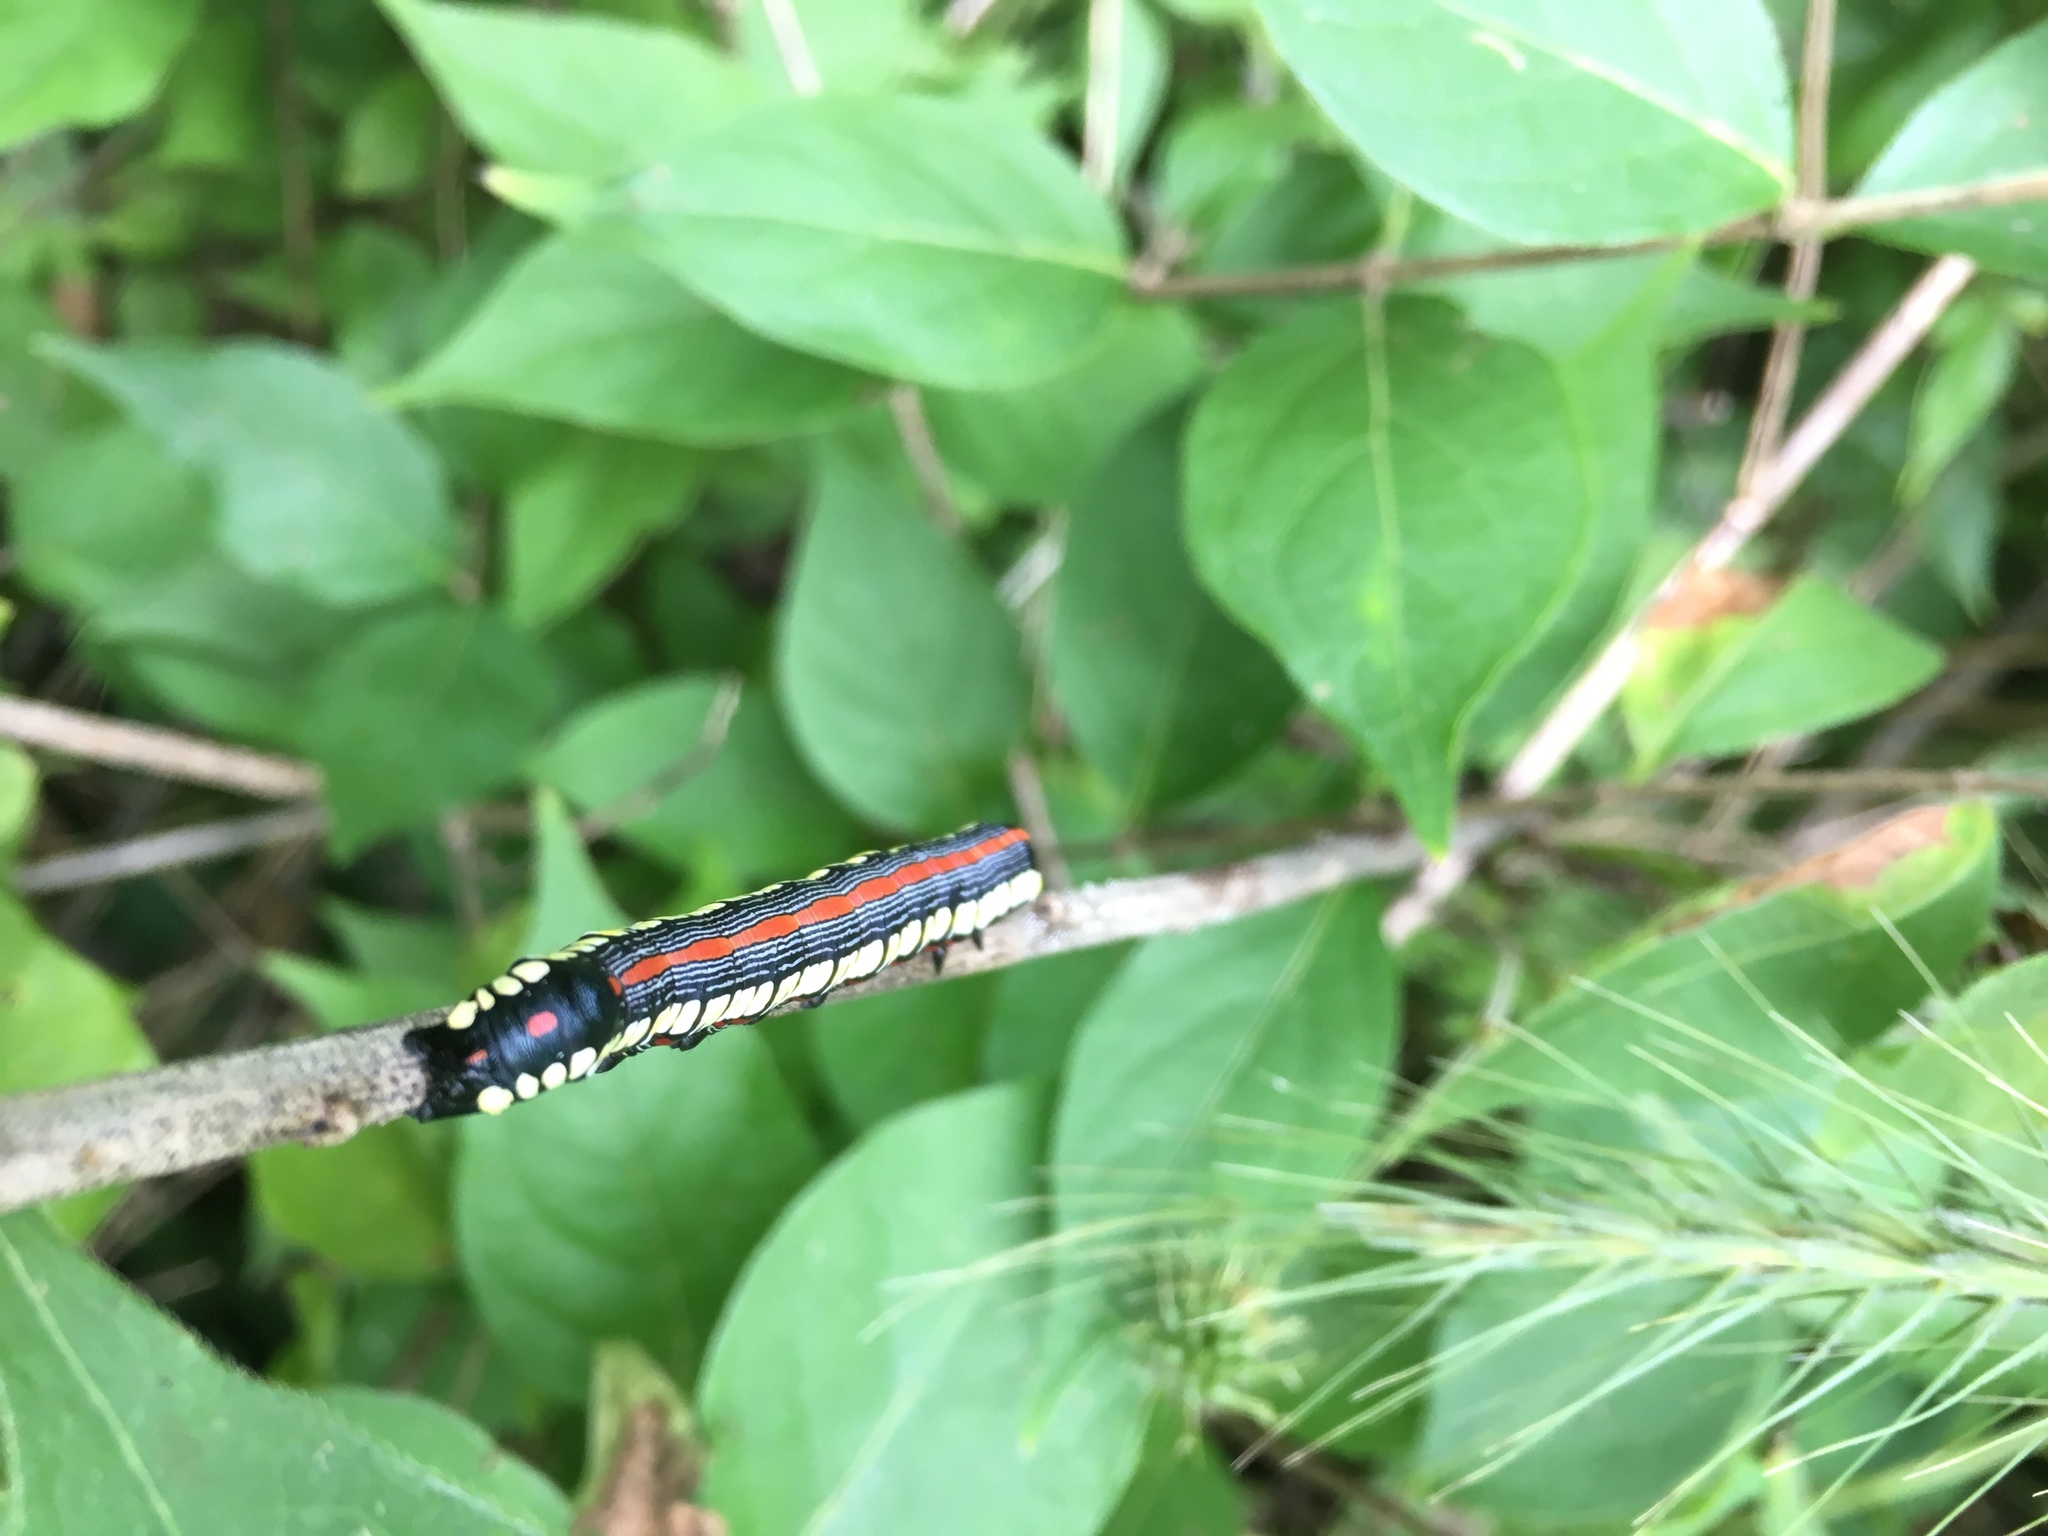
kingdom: Animalia
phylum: Arthropoda
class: Insecta
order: Lepidoptera
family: Noctuidae
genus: Cucullia
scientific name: Cucullia convexipennis
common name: Brown-hooded owlet
